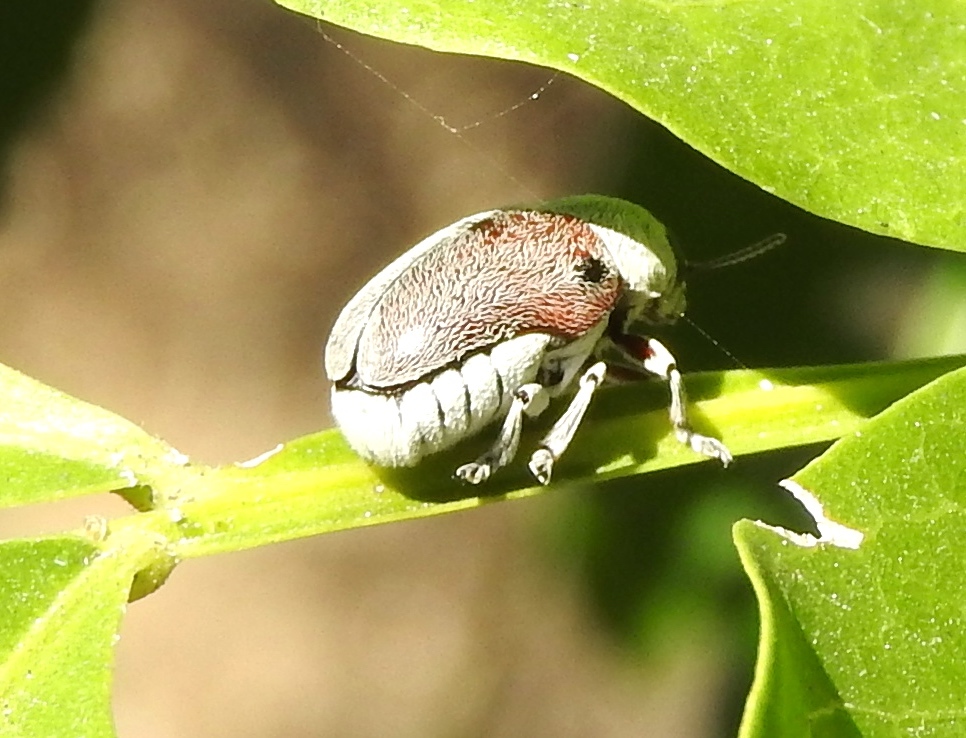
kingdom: Animalia
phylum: Arthropoda
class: Insecta
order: Coleoptera
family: Chrysomelidae
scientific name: Chrysomelidae
